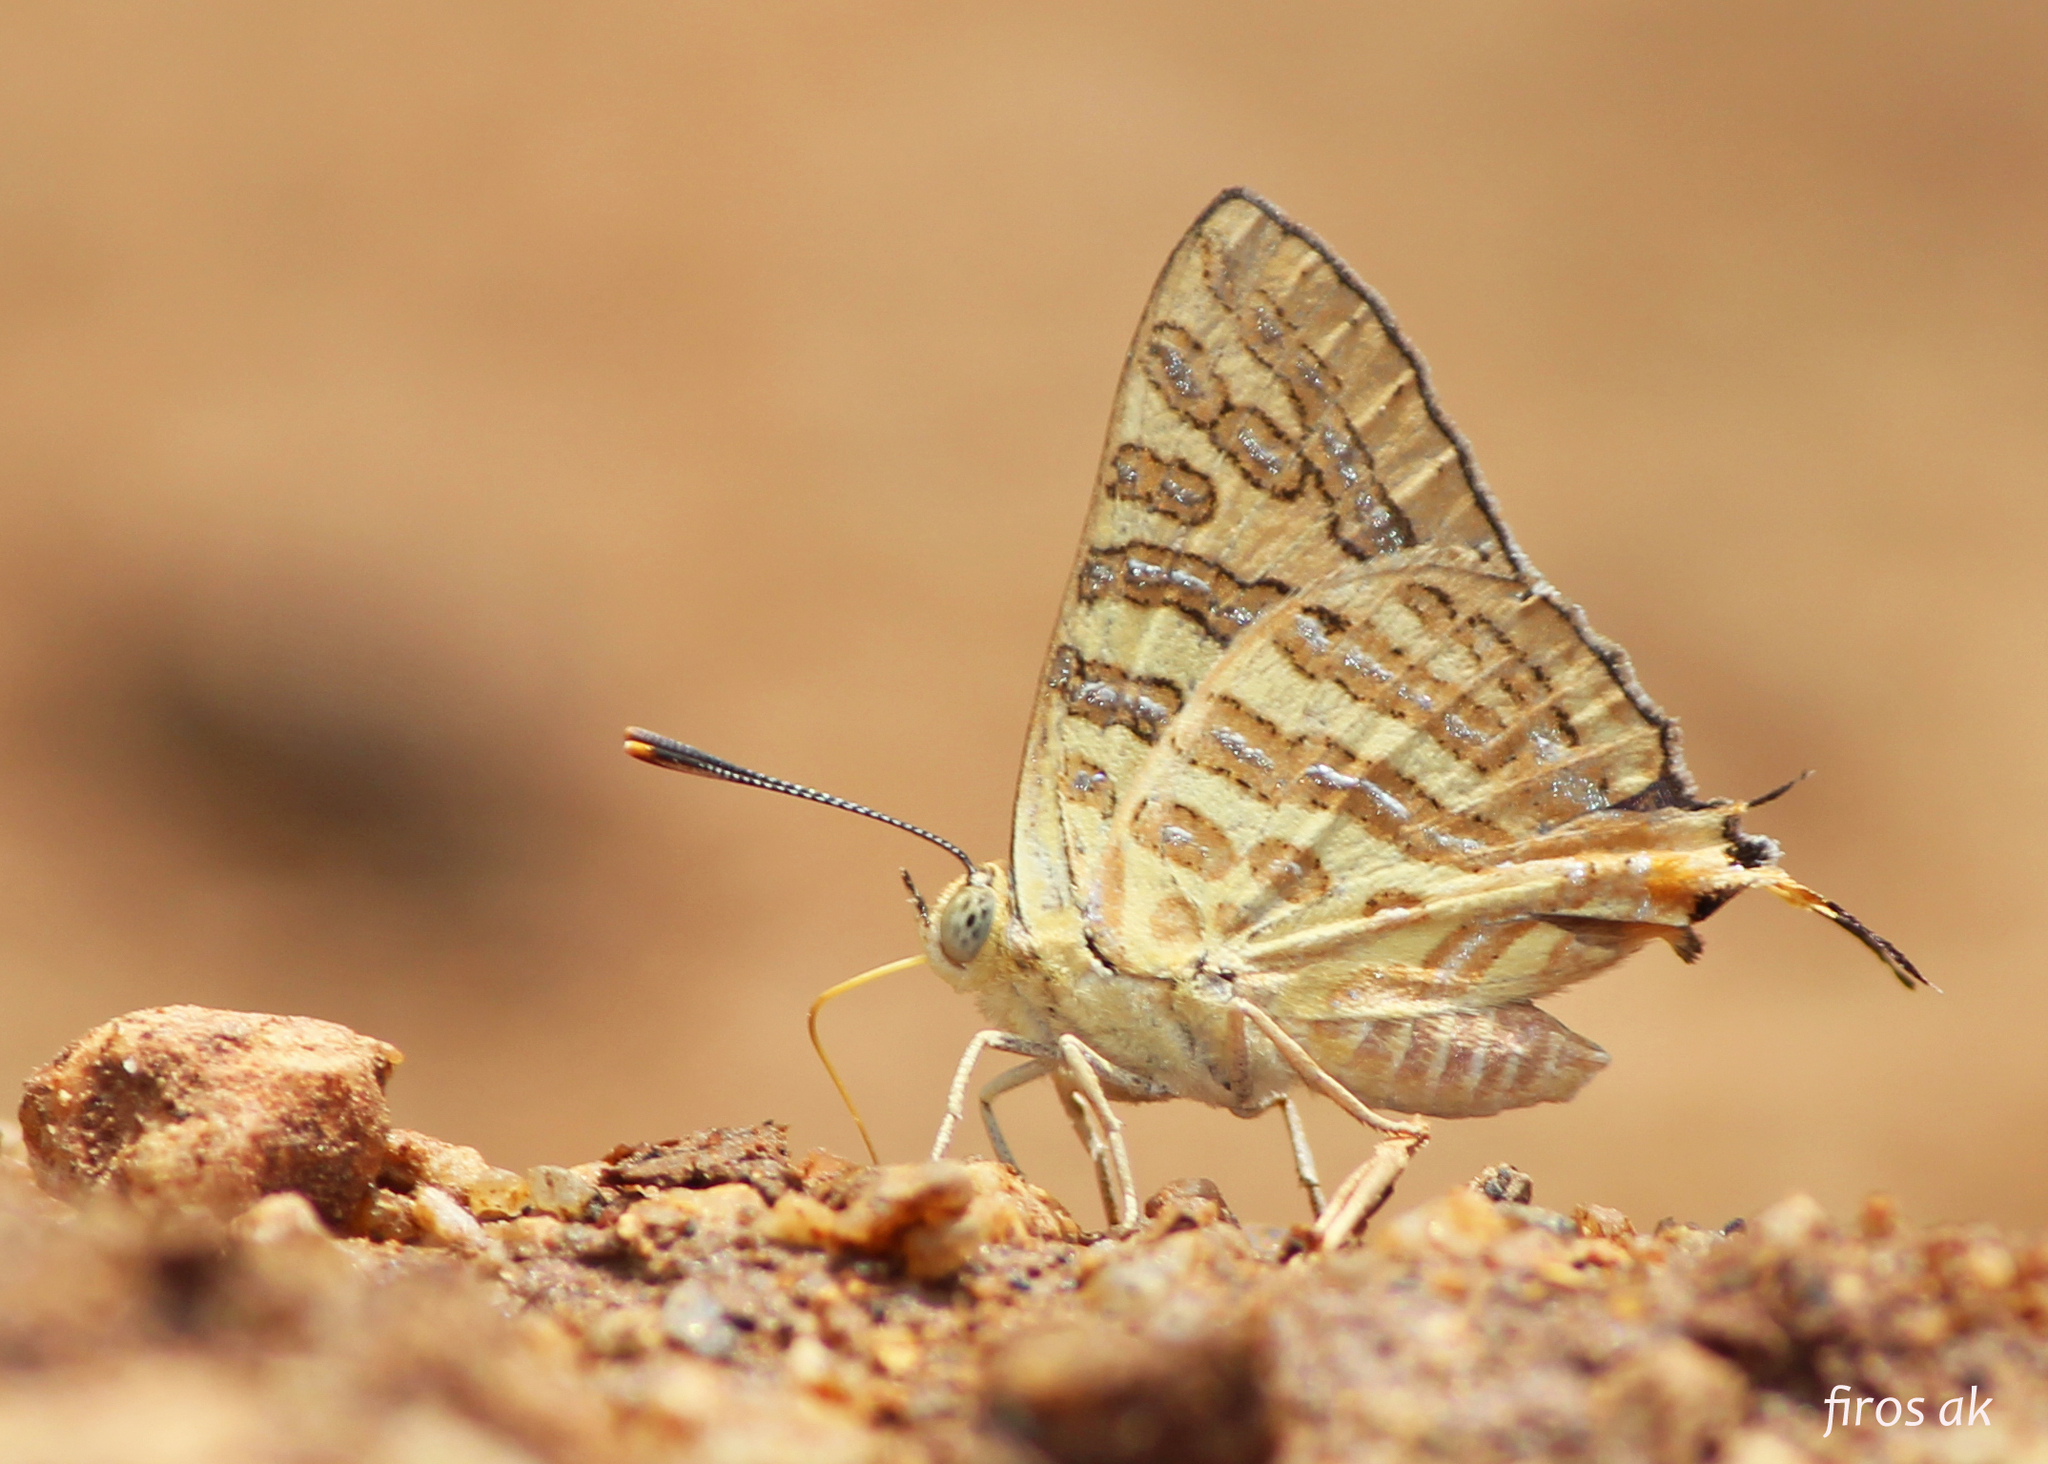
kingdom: Animalia
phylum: Arthropoda
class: Insecta
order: Lepidoptera
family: Lycaenidae
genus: Cigaritis
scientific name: Cigaritis
